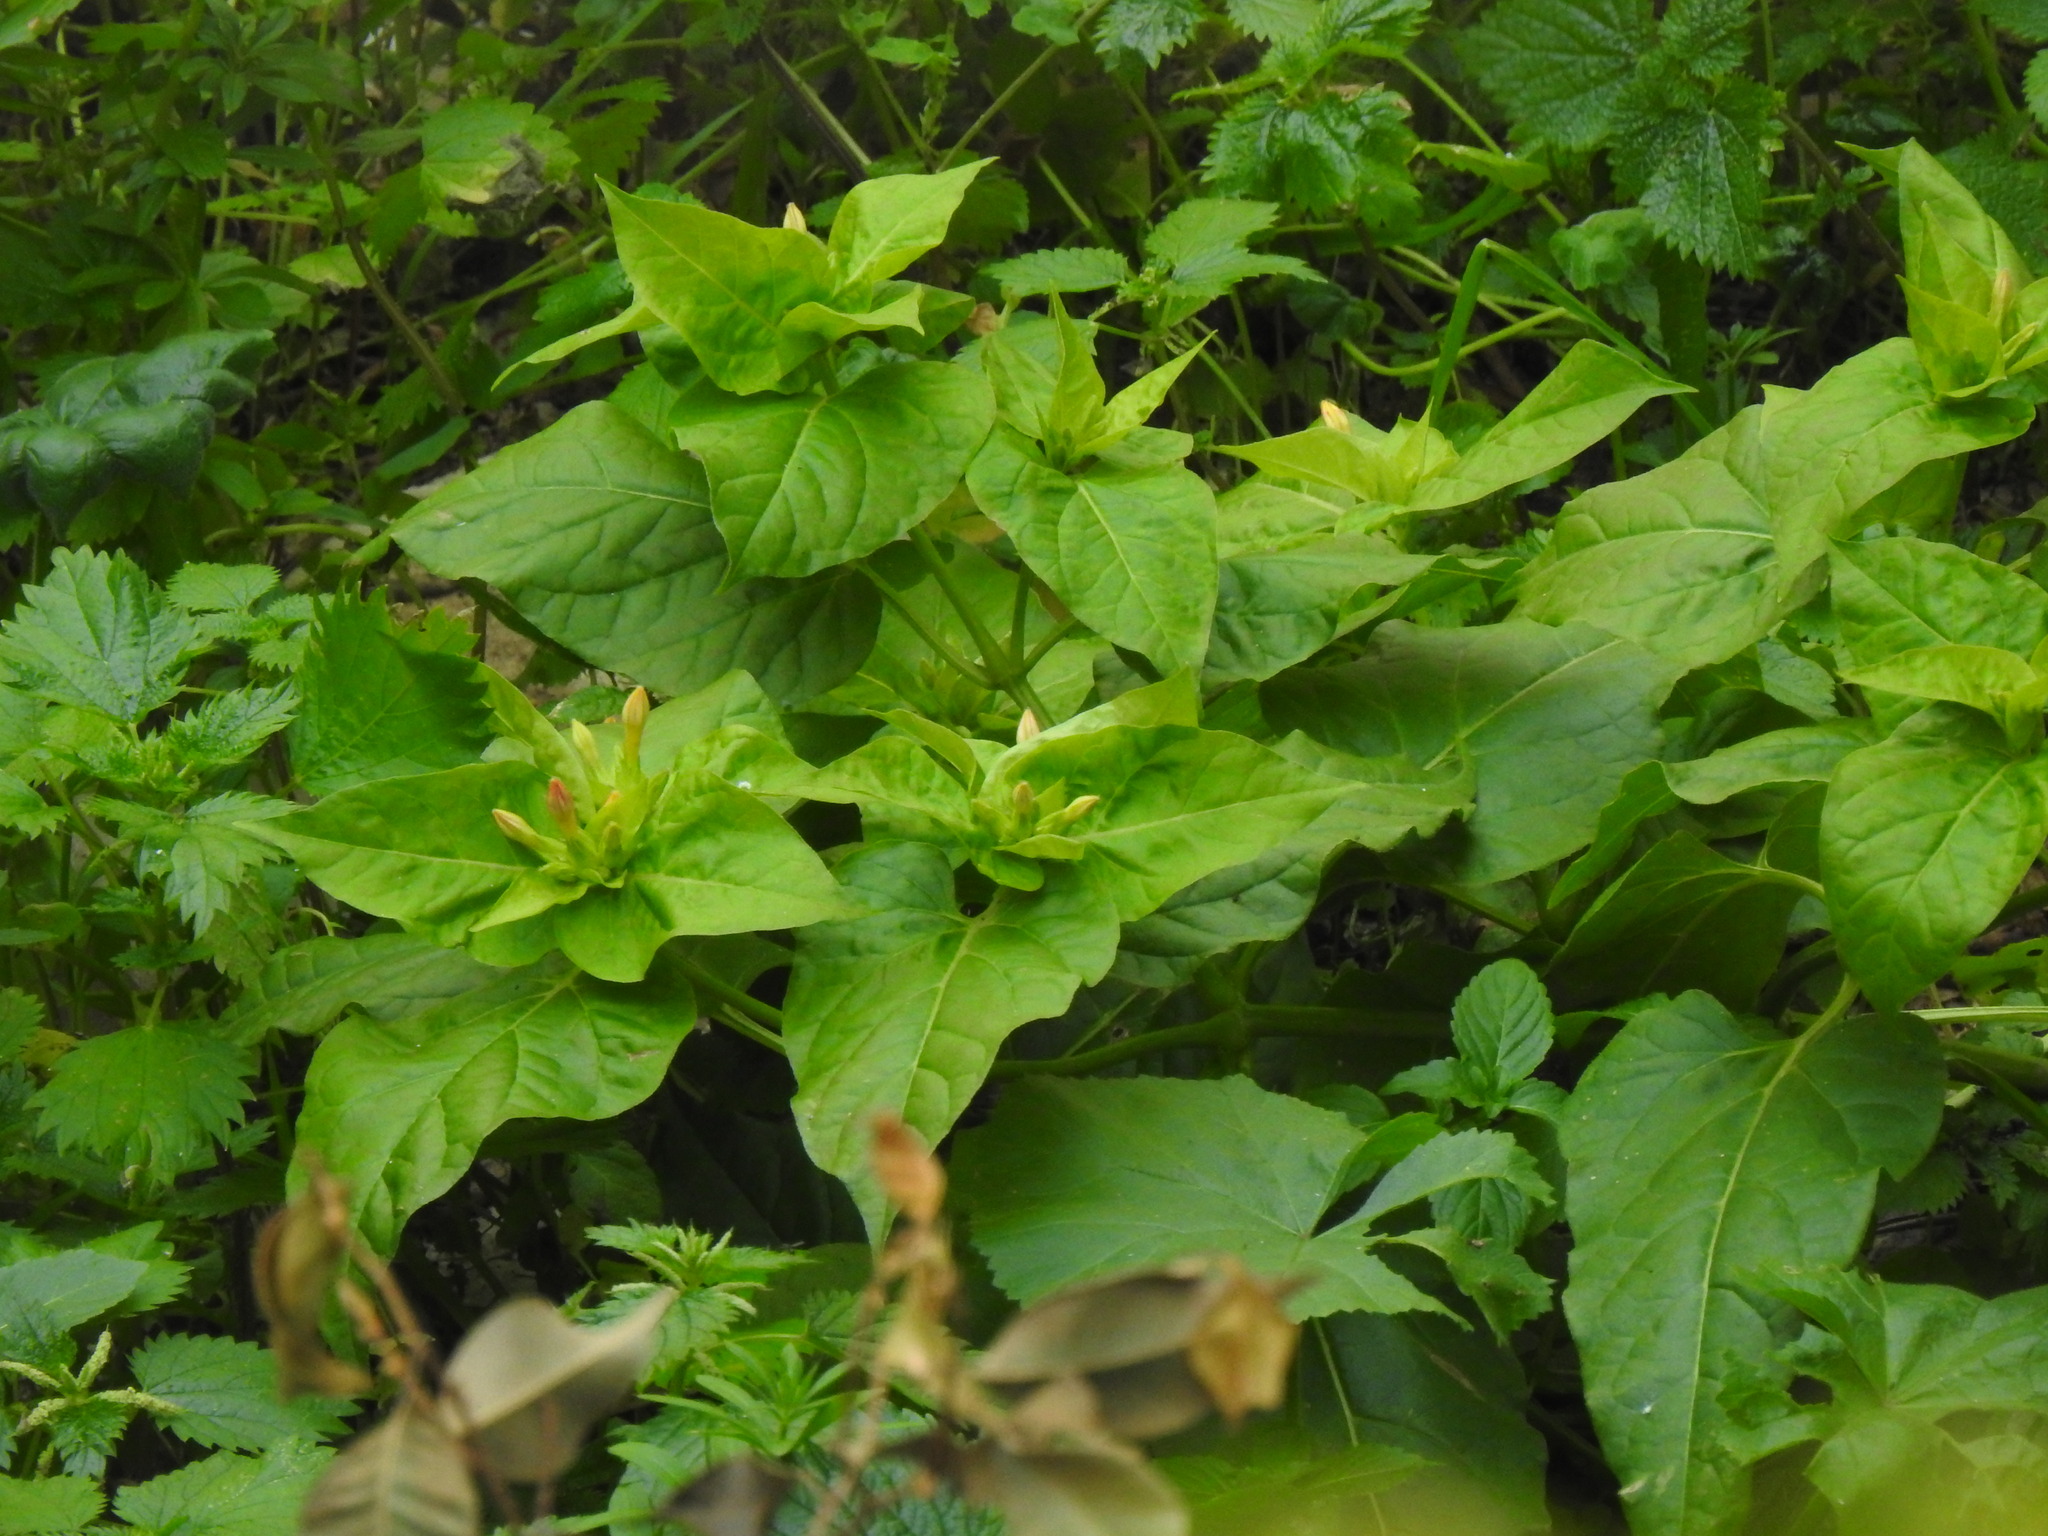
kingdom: Plantae
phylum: Tracheophyta
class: Magnoliopsida
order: Caryophyllales
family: Nyctaginaceae
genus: Mirabilis
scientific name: Mirabilis jalapa
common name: Marvel-of-peru
